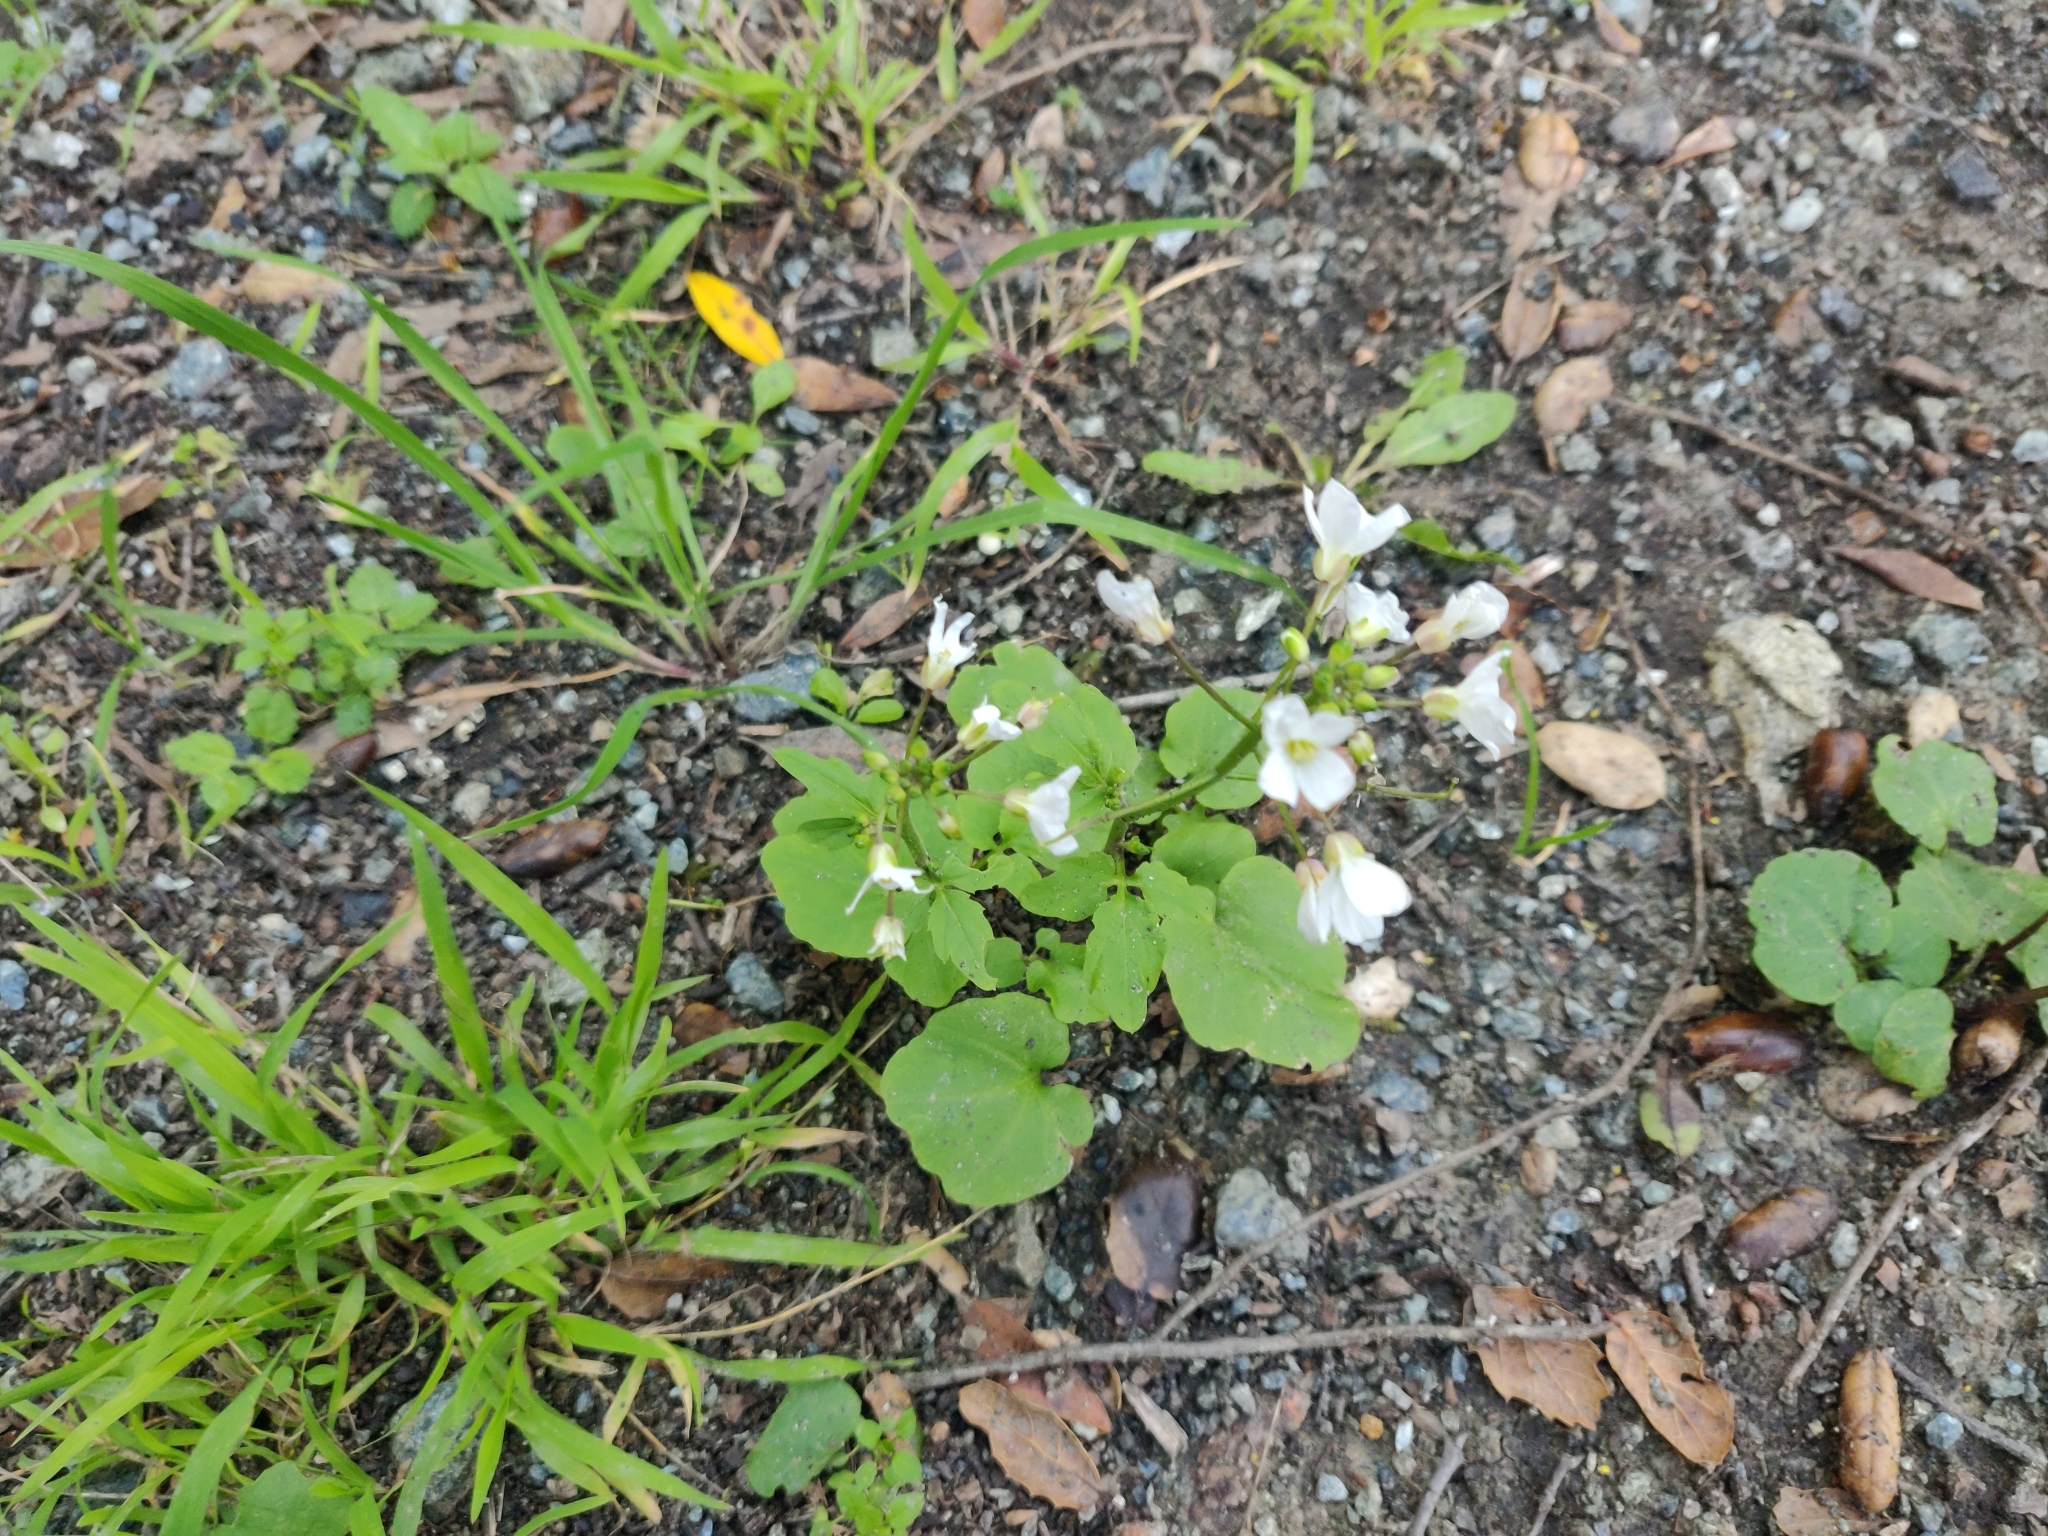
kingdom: Plantae
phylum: Tracheophyta
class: Magnoliopsida
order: Brassicales
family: Brassicaceae
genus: Cardamine
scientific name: Cardamine californica
